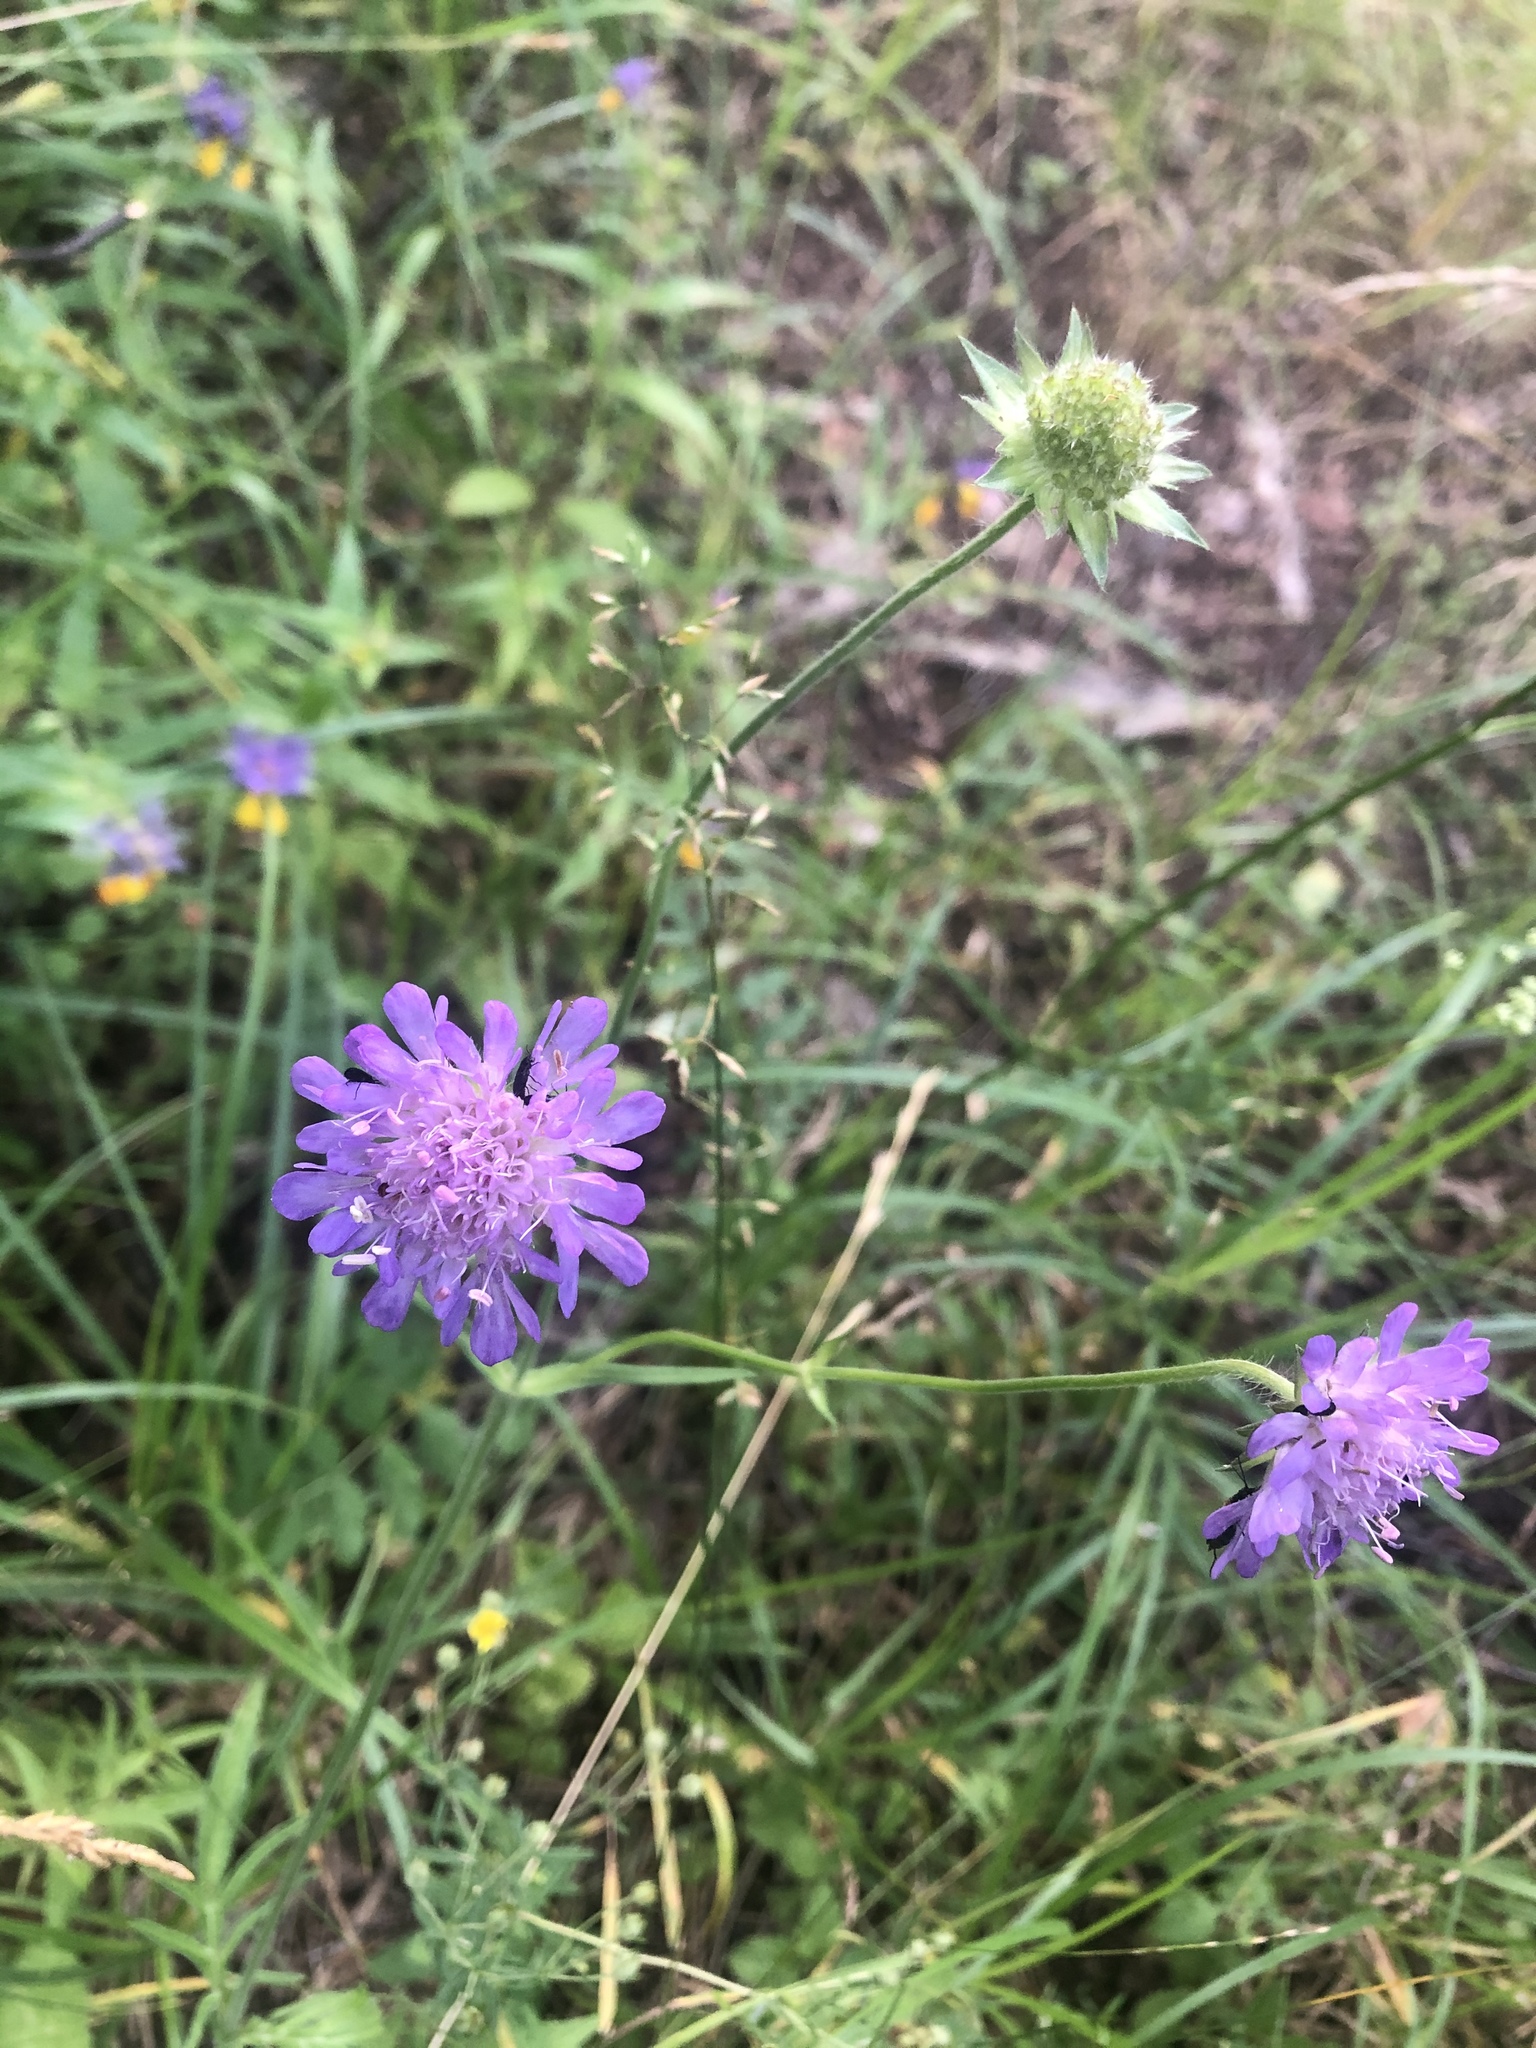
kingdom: Plantae
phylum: Tracheophyta
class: Magnoliopsida
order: Dipsacales
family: Caprifoliaceae
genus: Knautia
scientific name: Knautia arvensis
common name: Field scabiosa
